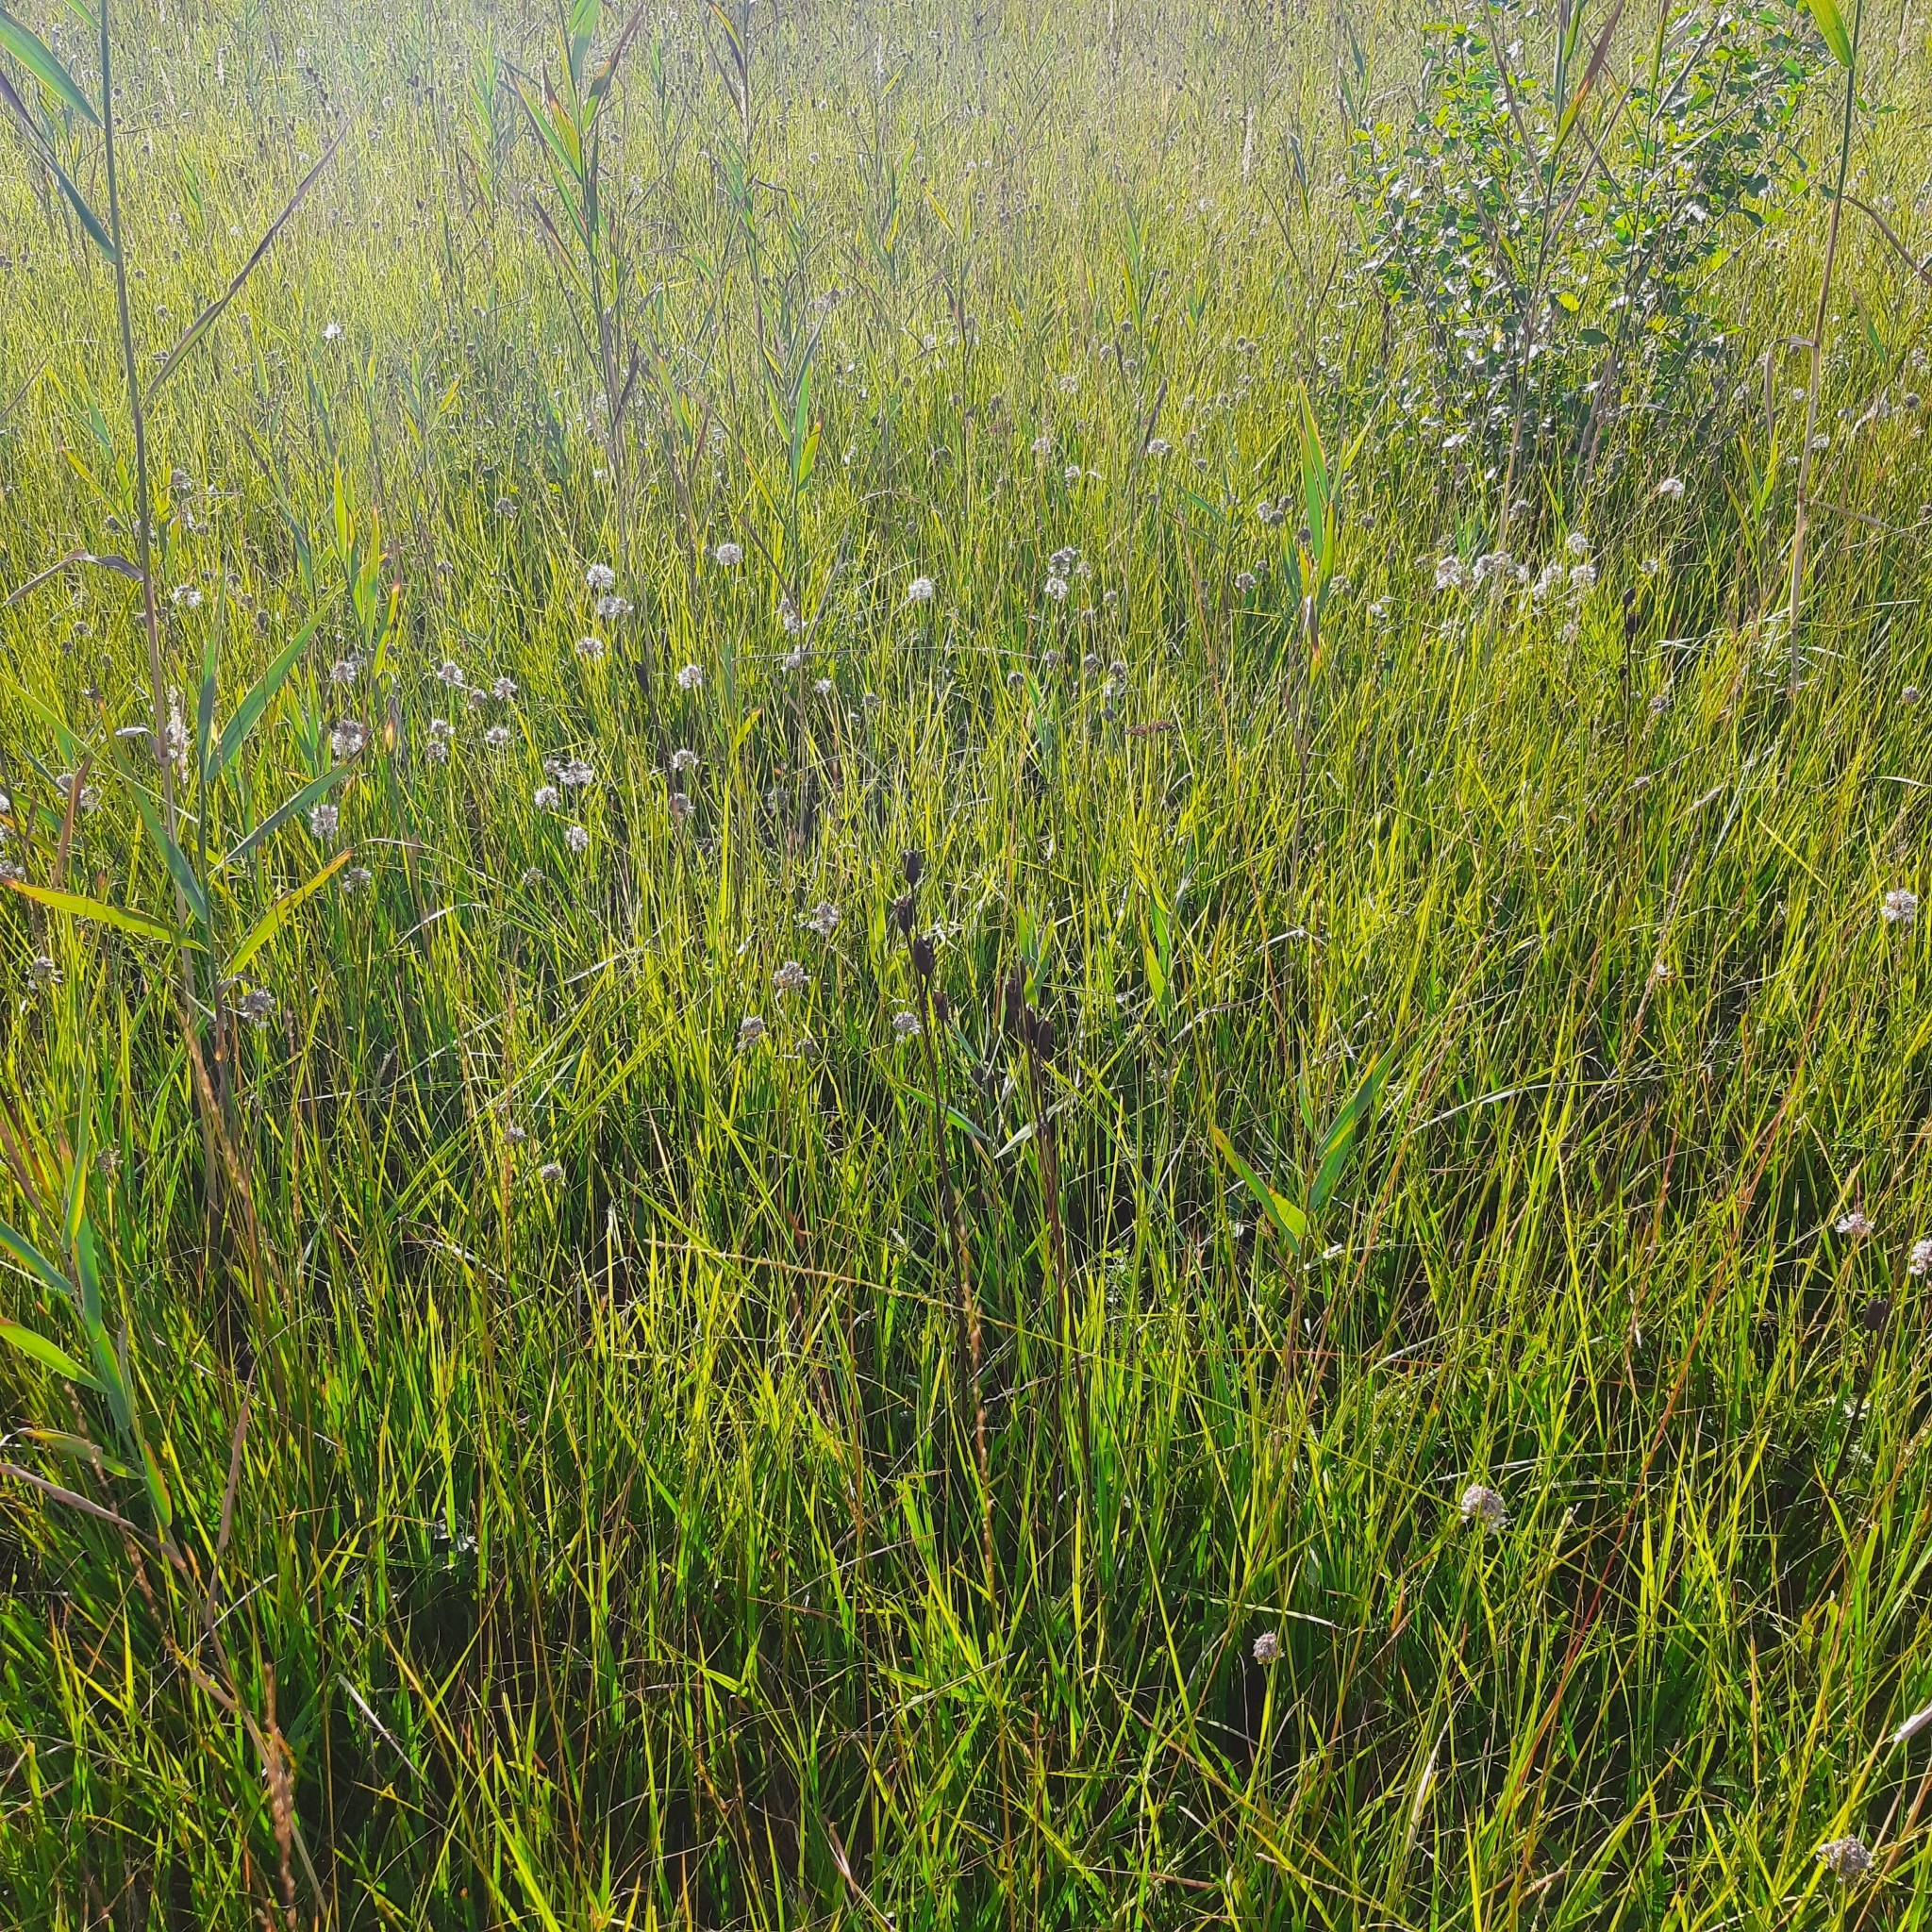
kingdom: Plantae
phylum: Tracheophyta
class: Liliopsida
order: Asparagales
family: Amaryllidaceae
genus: Allium
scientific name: Allium suaveolens
